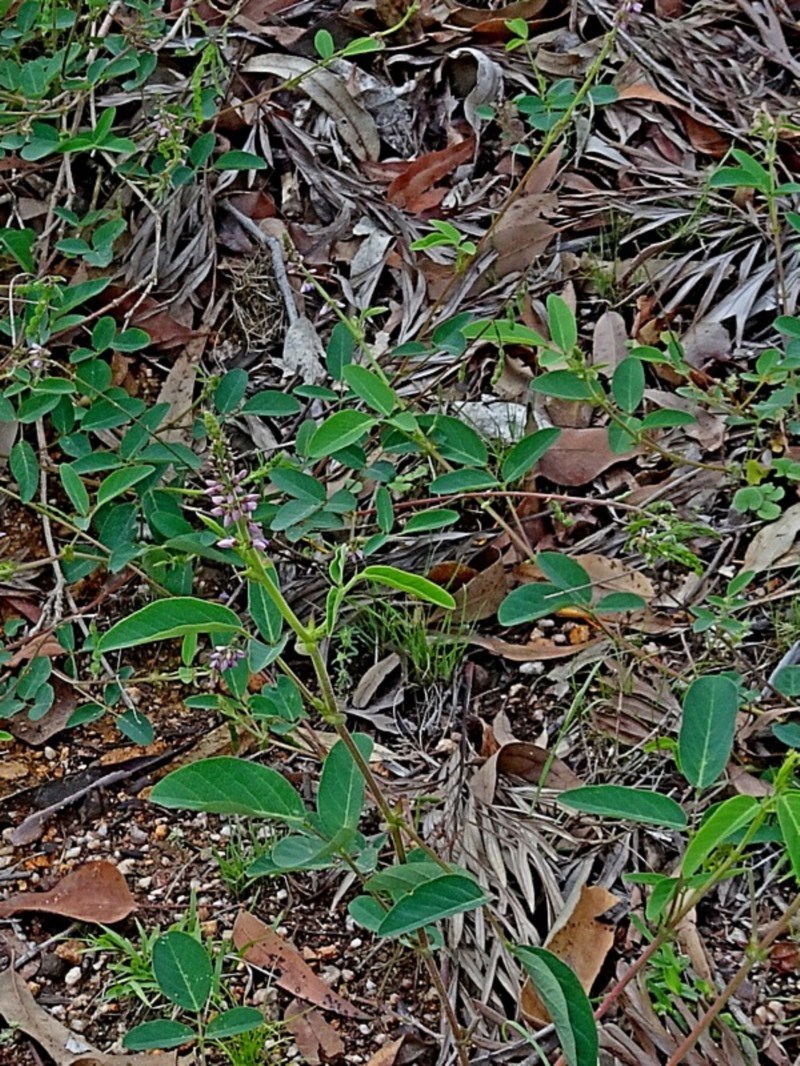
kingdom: Plantae
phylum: Tracheophyta
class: Magnoliopsida
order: Fabales
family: Fabaceae
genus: Oxytes
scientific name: Oxytes brachypoda
